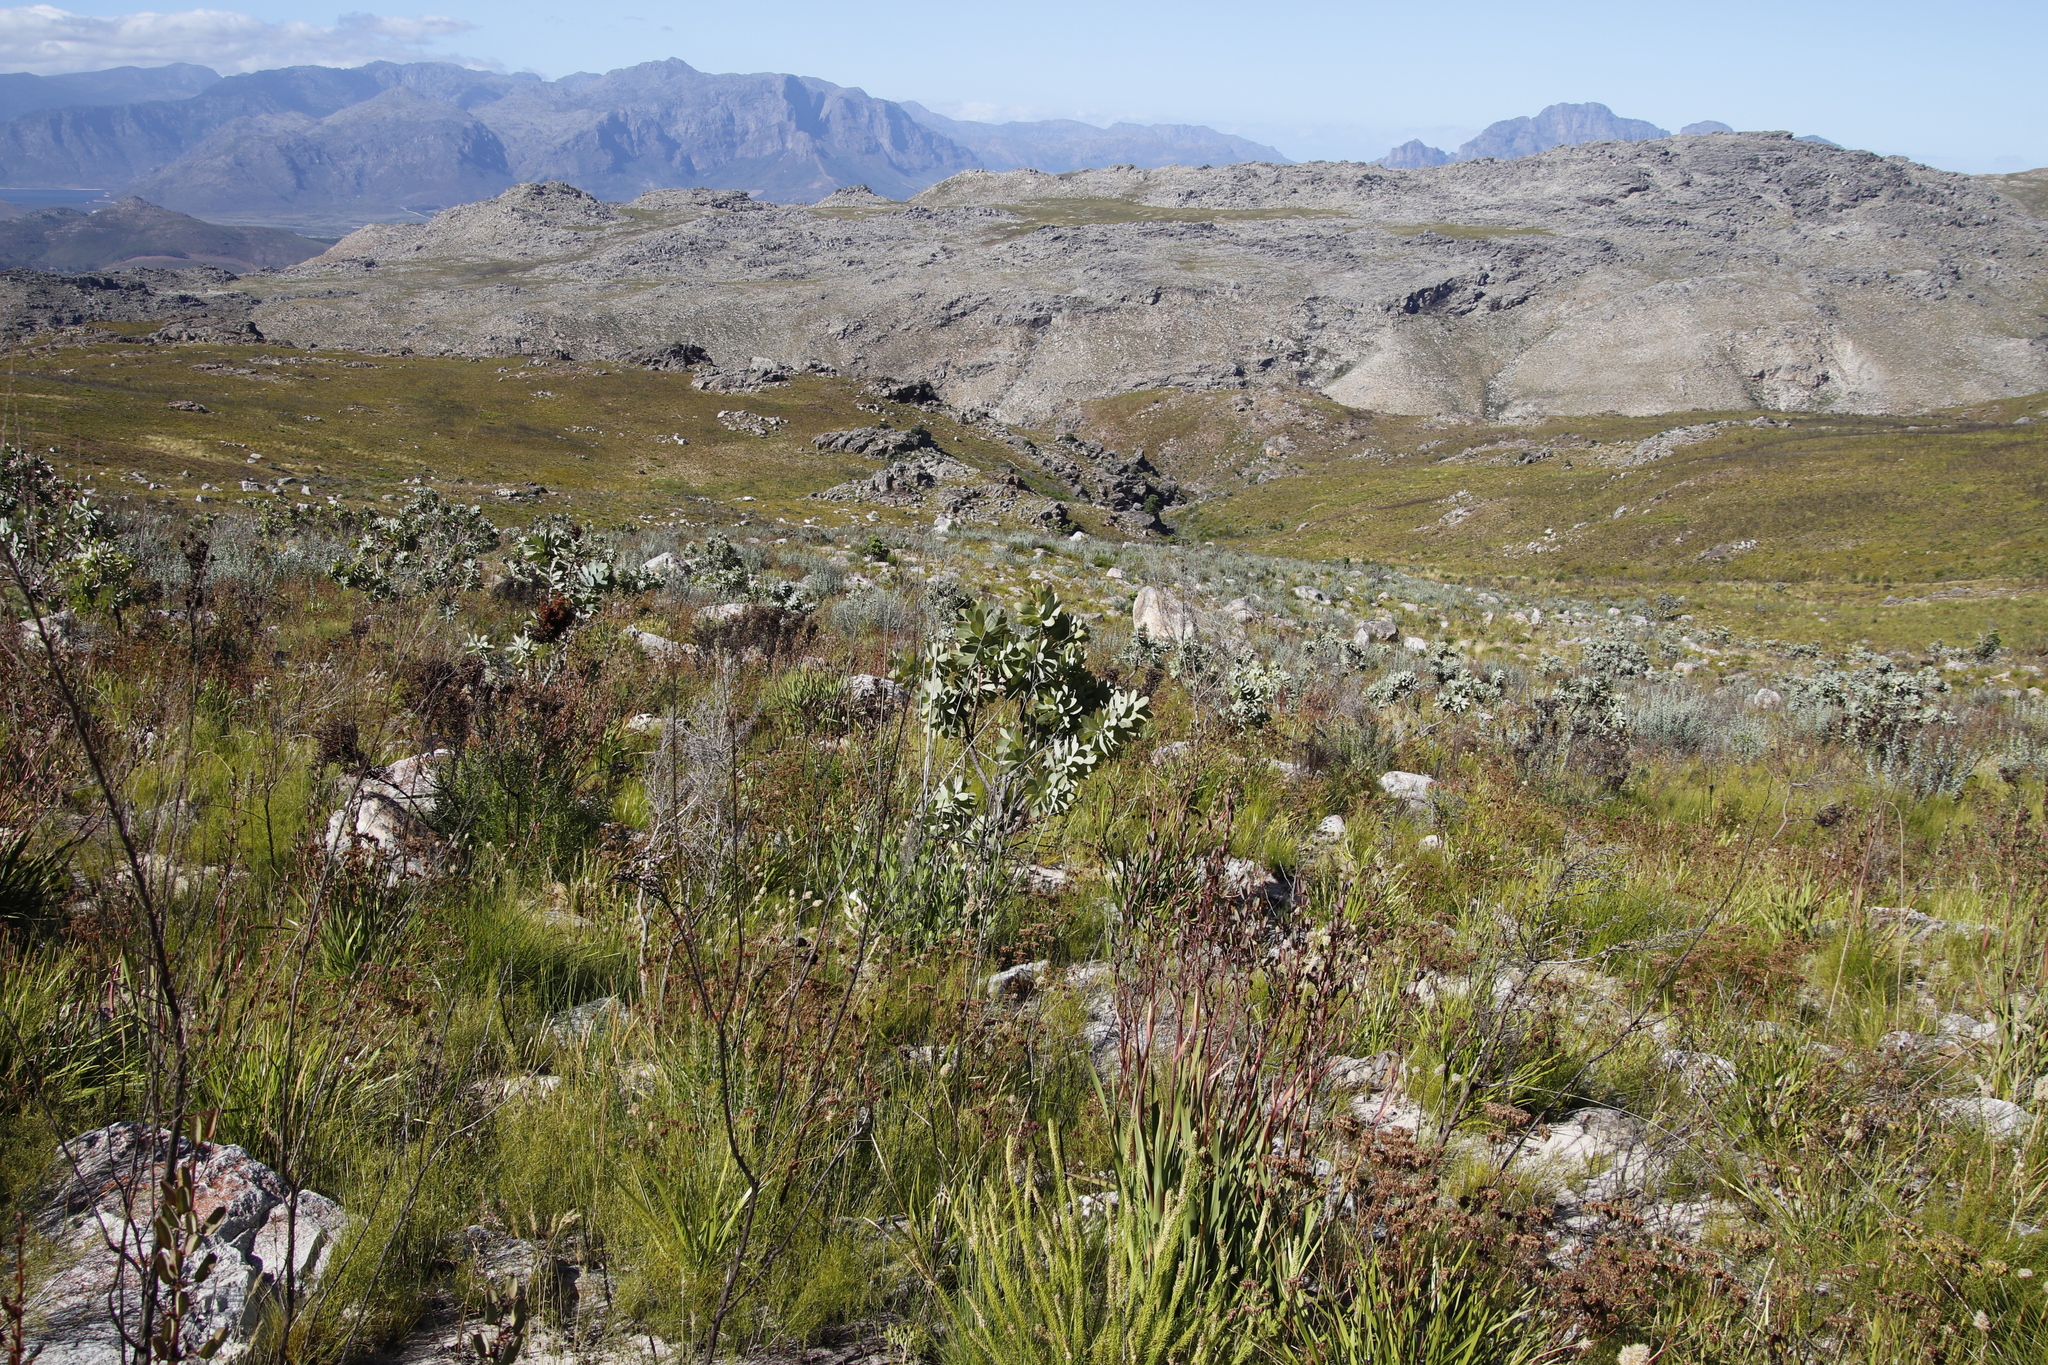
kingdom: Plantae
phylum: Tracheophyta
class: Magnoliopsida
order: Proteales
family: Proteaceae
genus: Protea
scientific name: Protea nitida
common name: Tree protea
